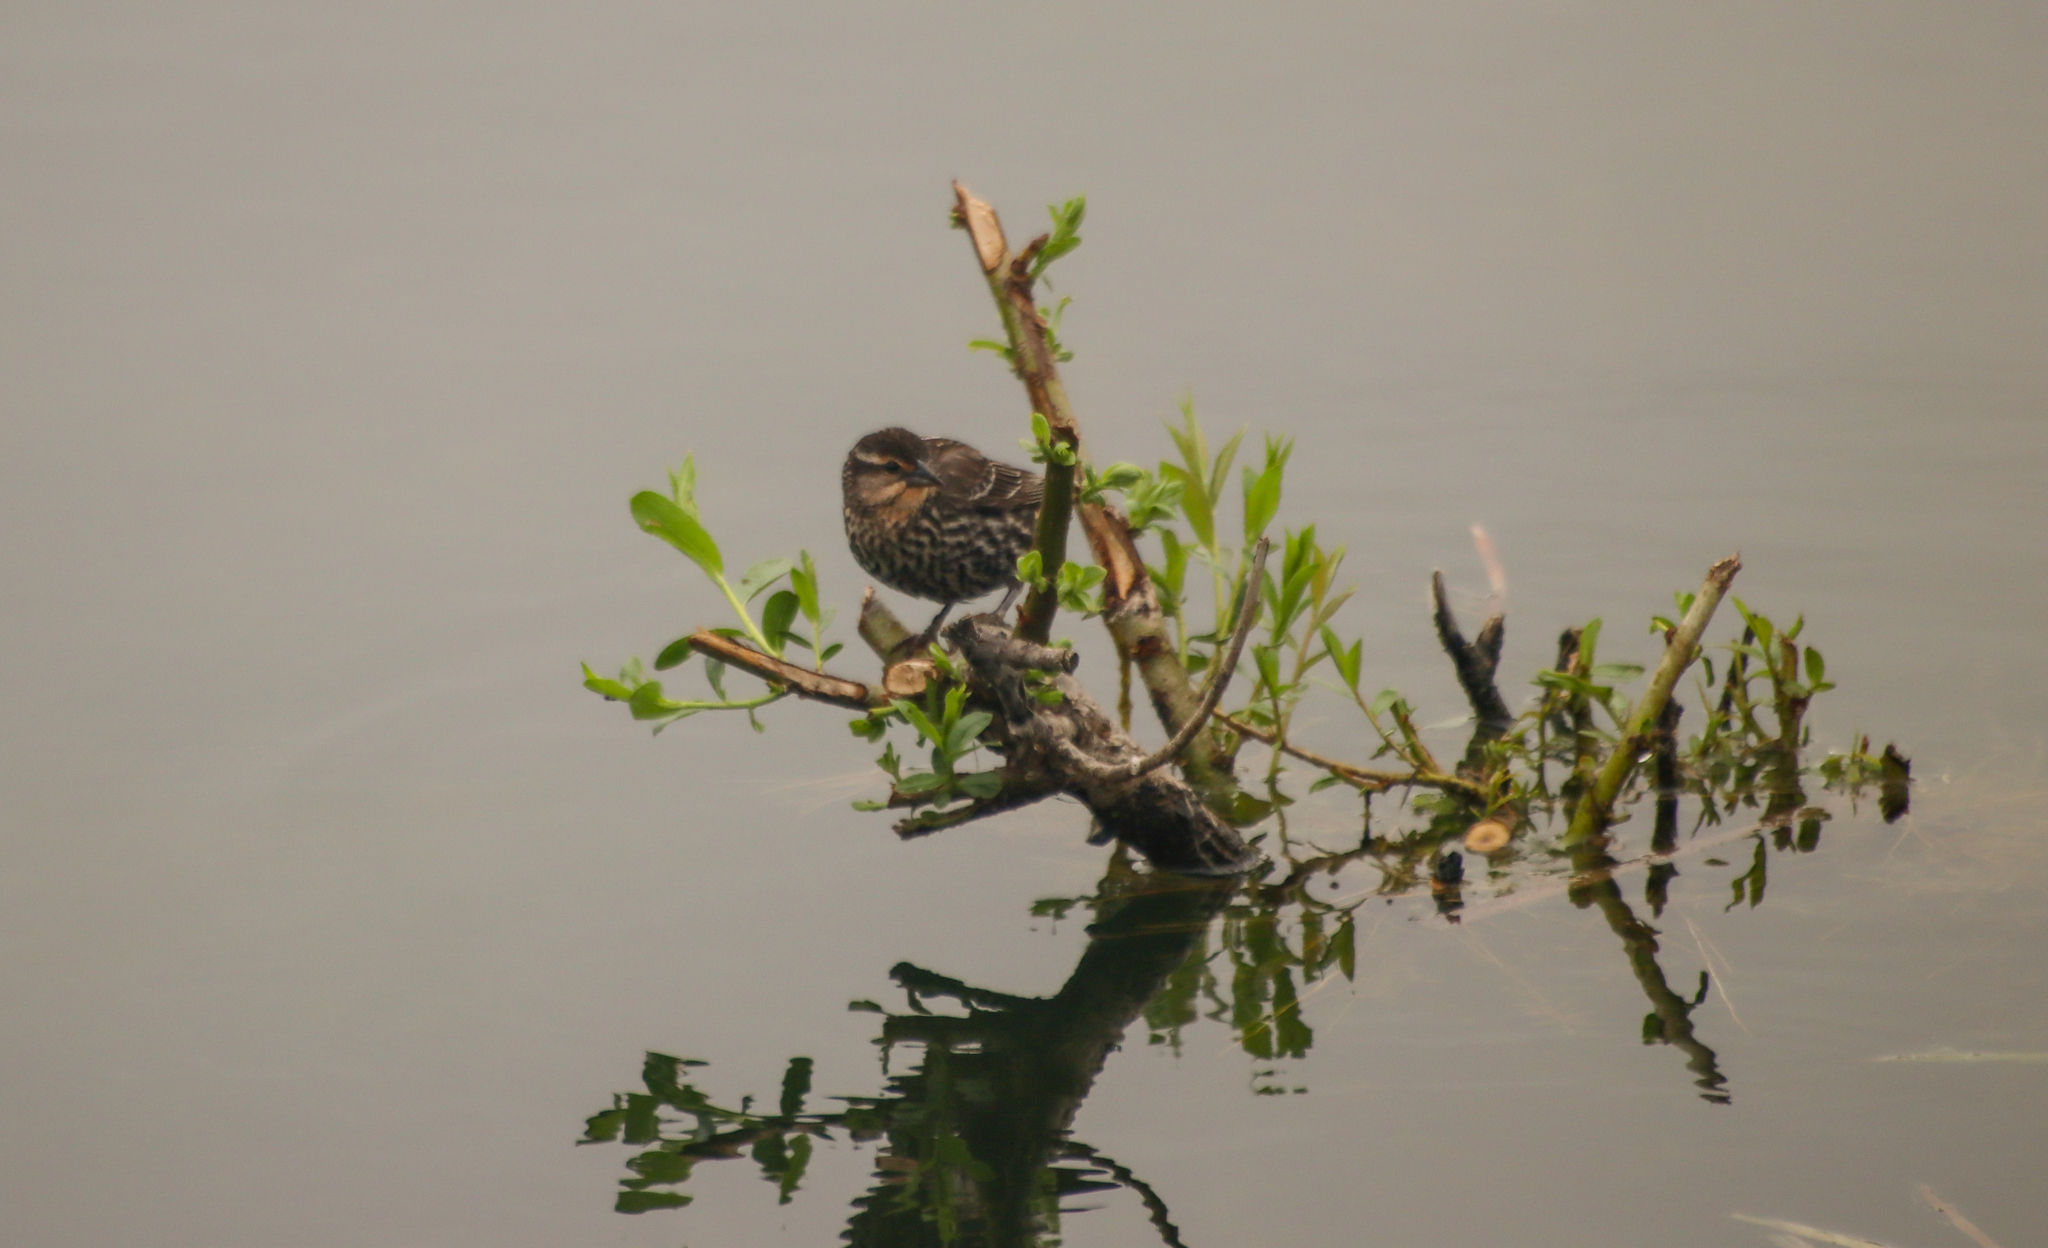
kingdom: Animalia
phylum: Chordata
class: Aves
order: Passeriformes
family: Icteridae
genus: Agelaius
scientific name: Agelaius phoeniceus
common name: Red-winged blackbird
